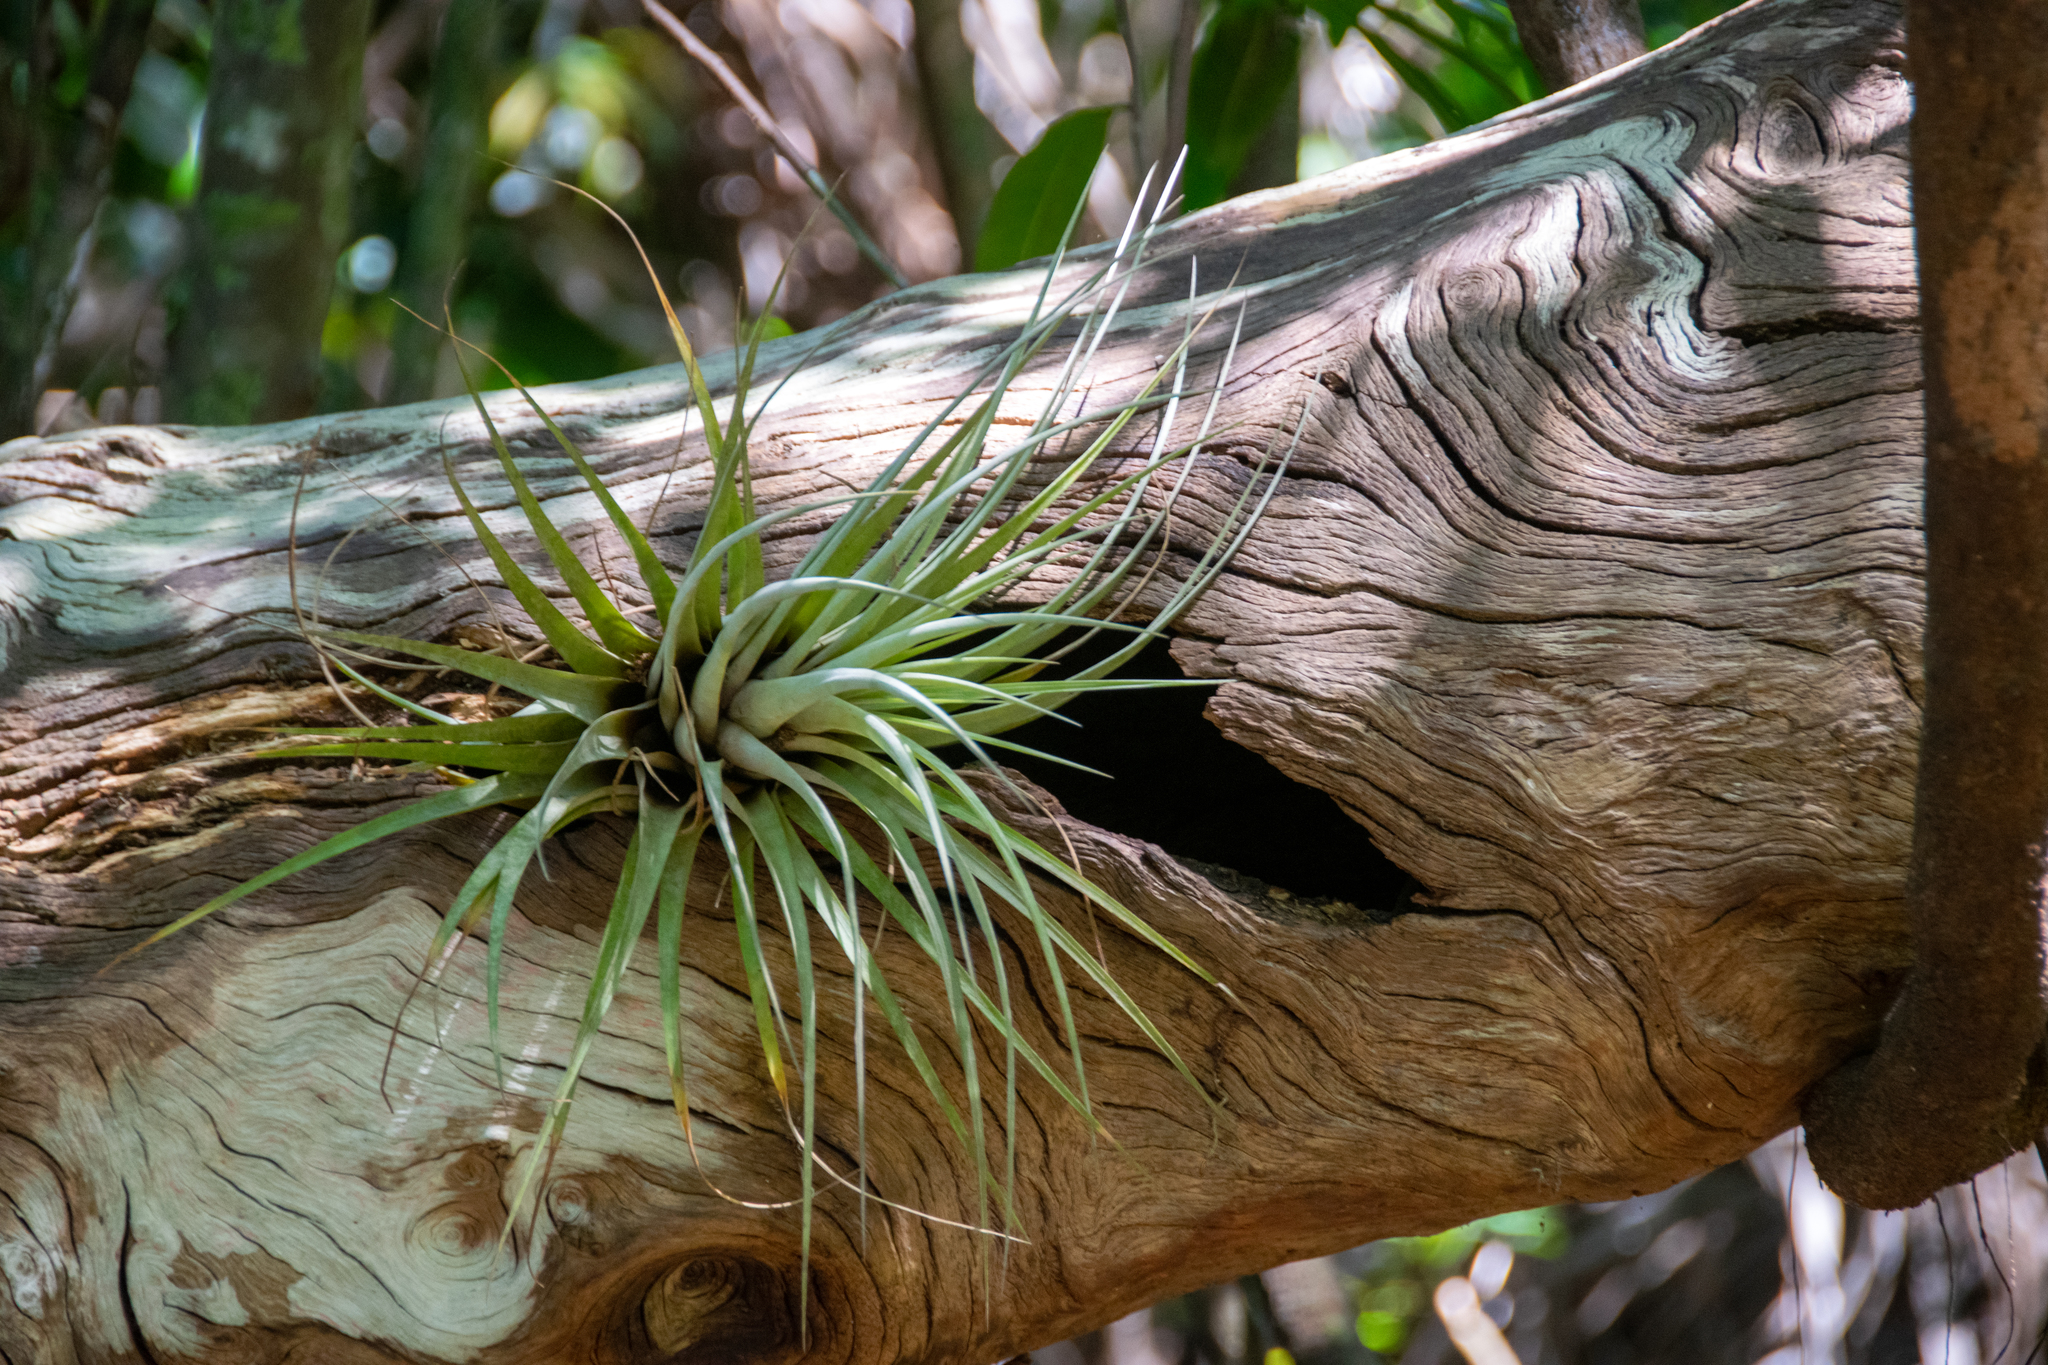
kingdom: Plantae
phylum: Tracheophyta
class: Liliopsida
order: Poales
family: Bromeliaceae
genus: Tillandsia
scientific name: Tillandsia utriculata
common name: Wild pine
